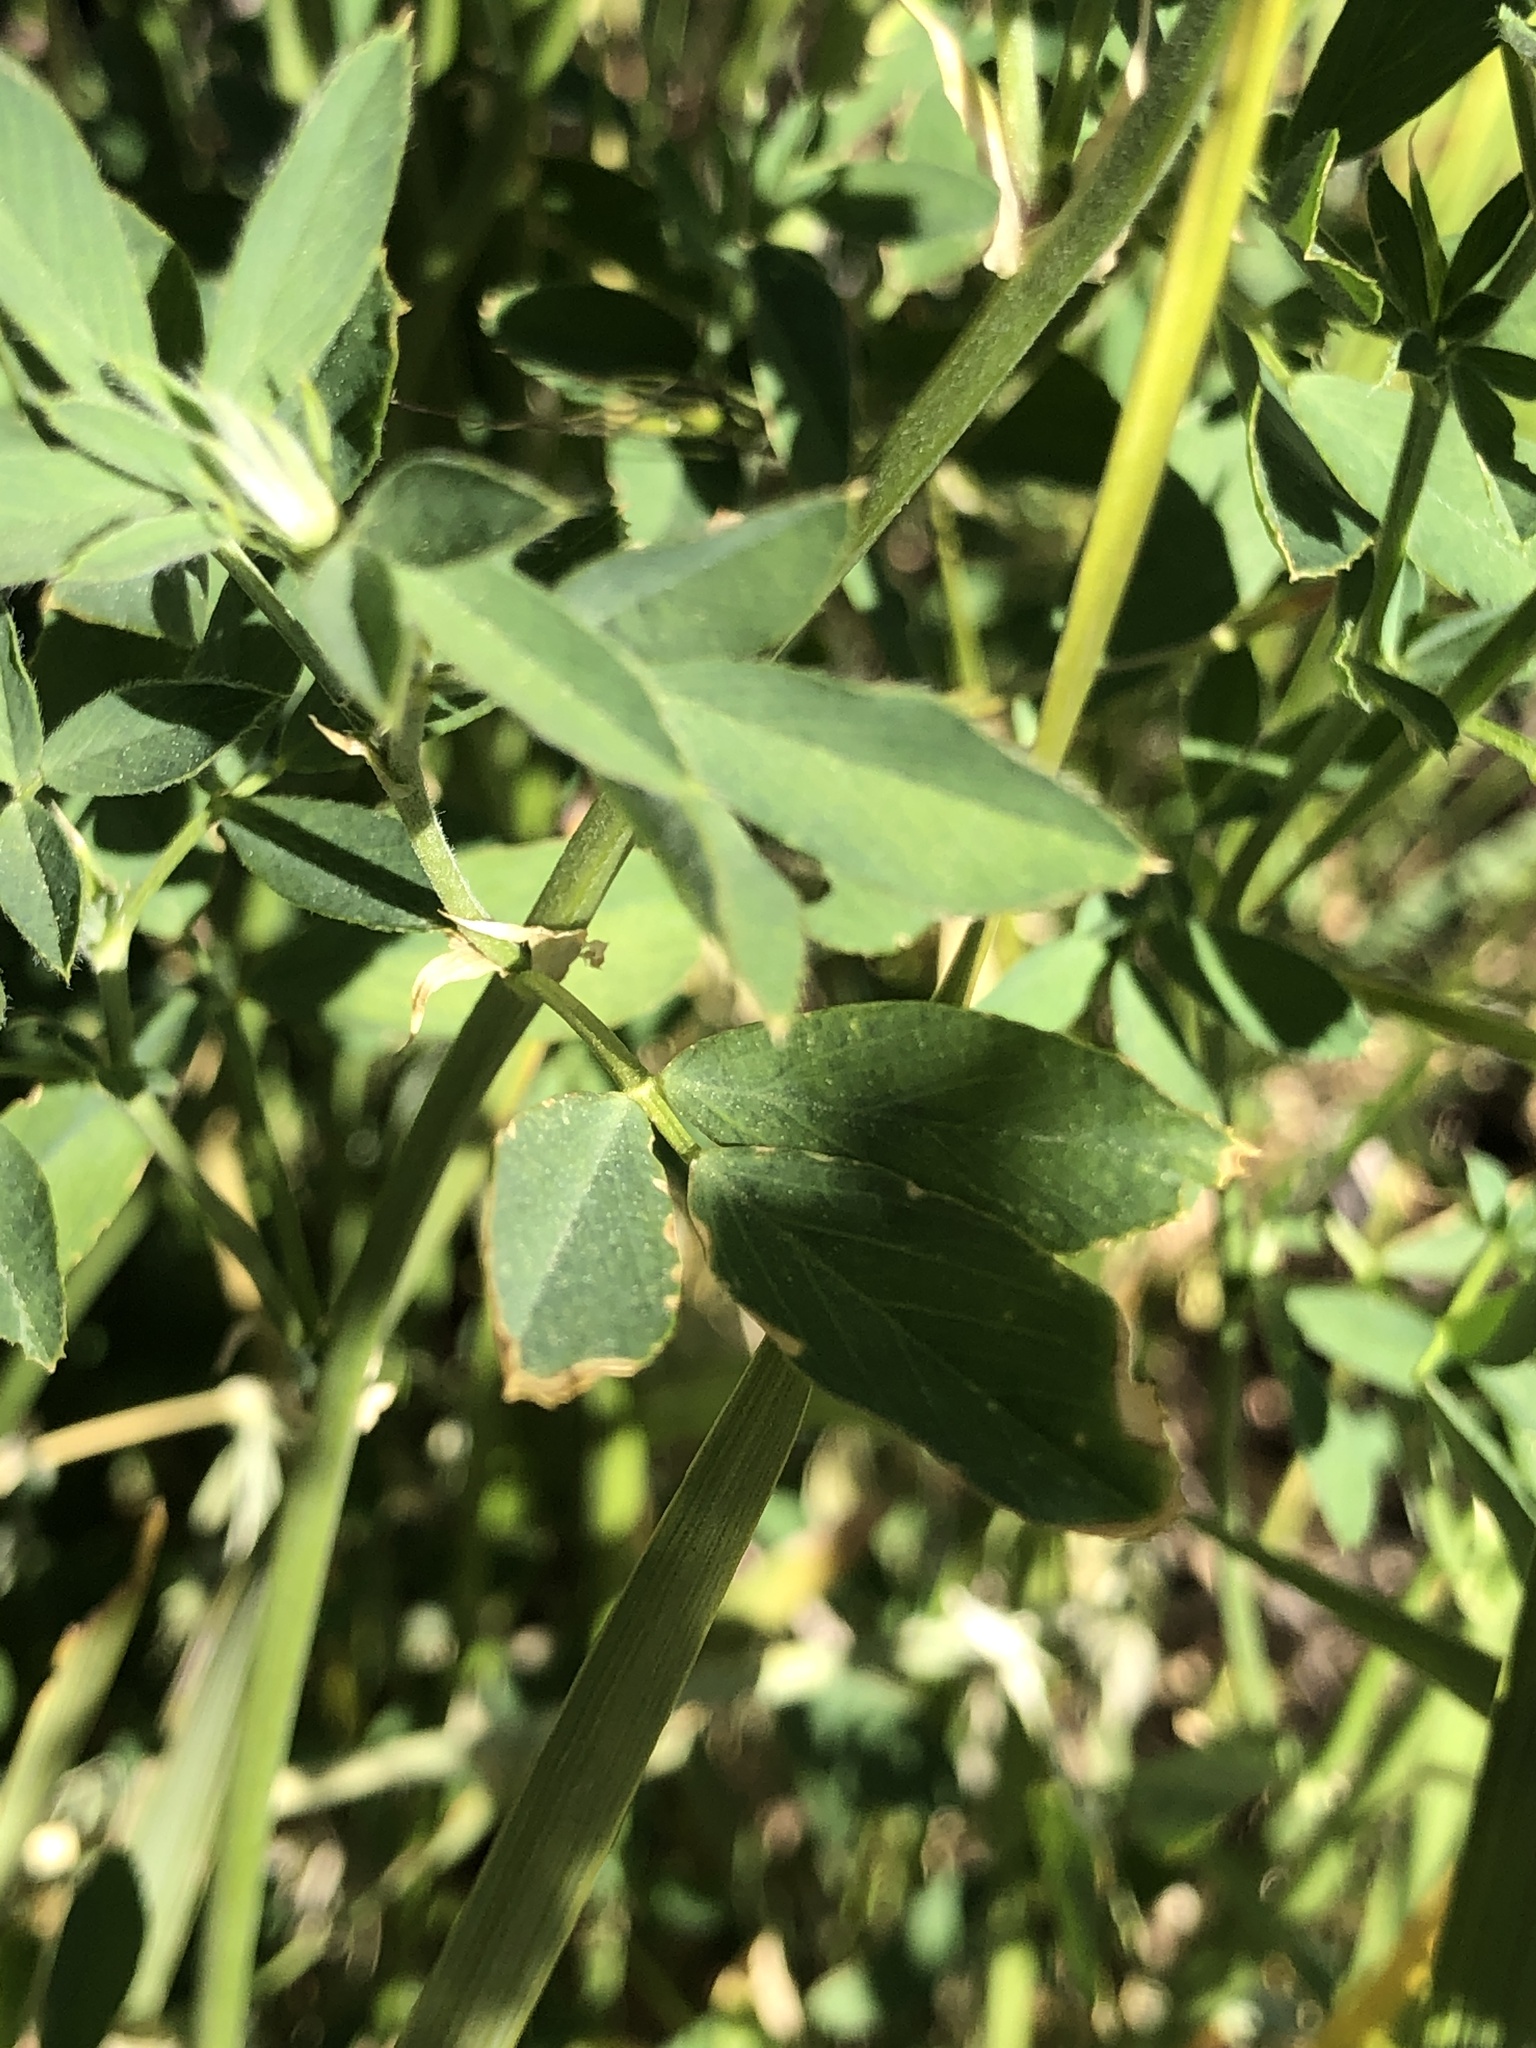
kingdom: Plantae
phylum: Tracheophyta
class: Magnoliopsida
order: Fabales
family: Fabaceae
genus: Medicago
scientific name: Medicago sativa
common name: Alfalfa
